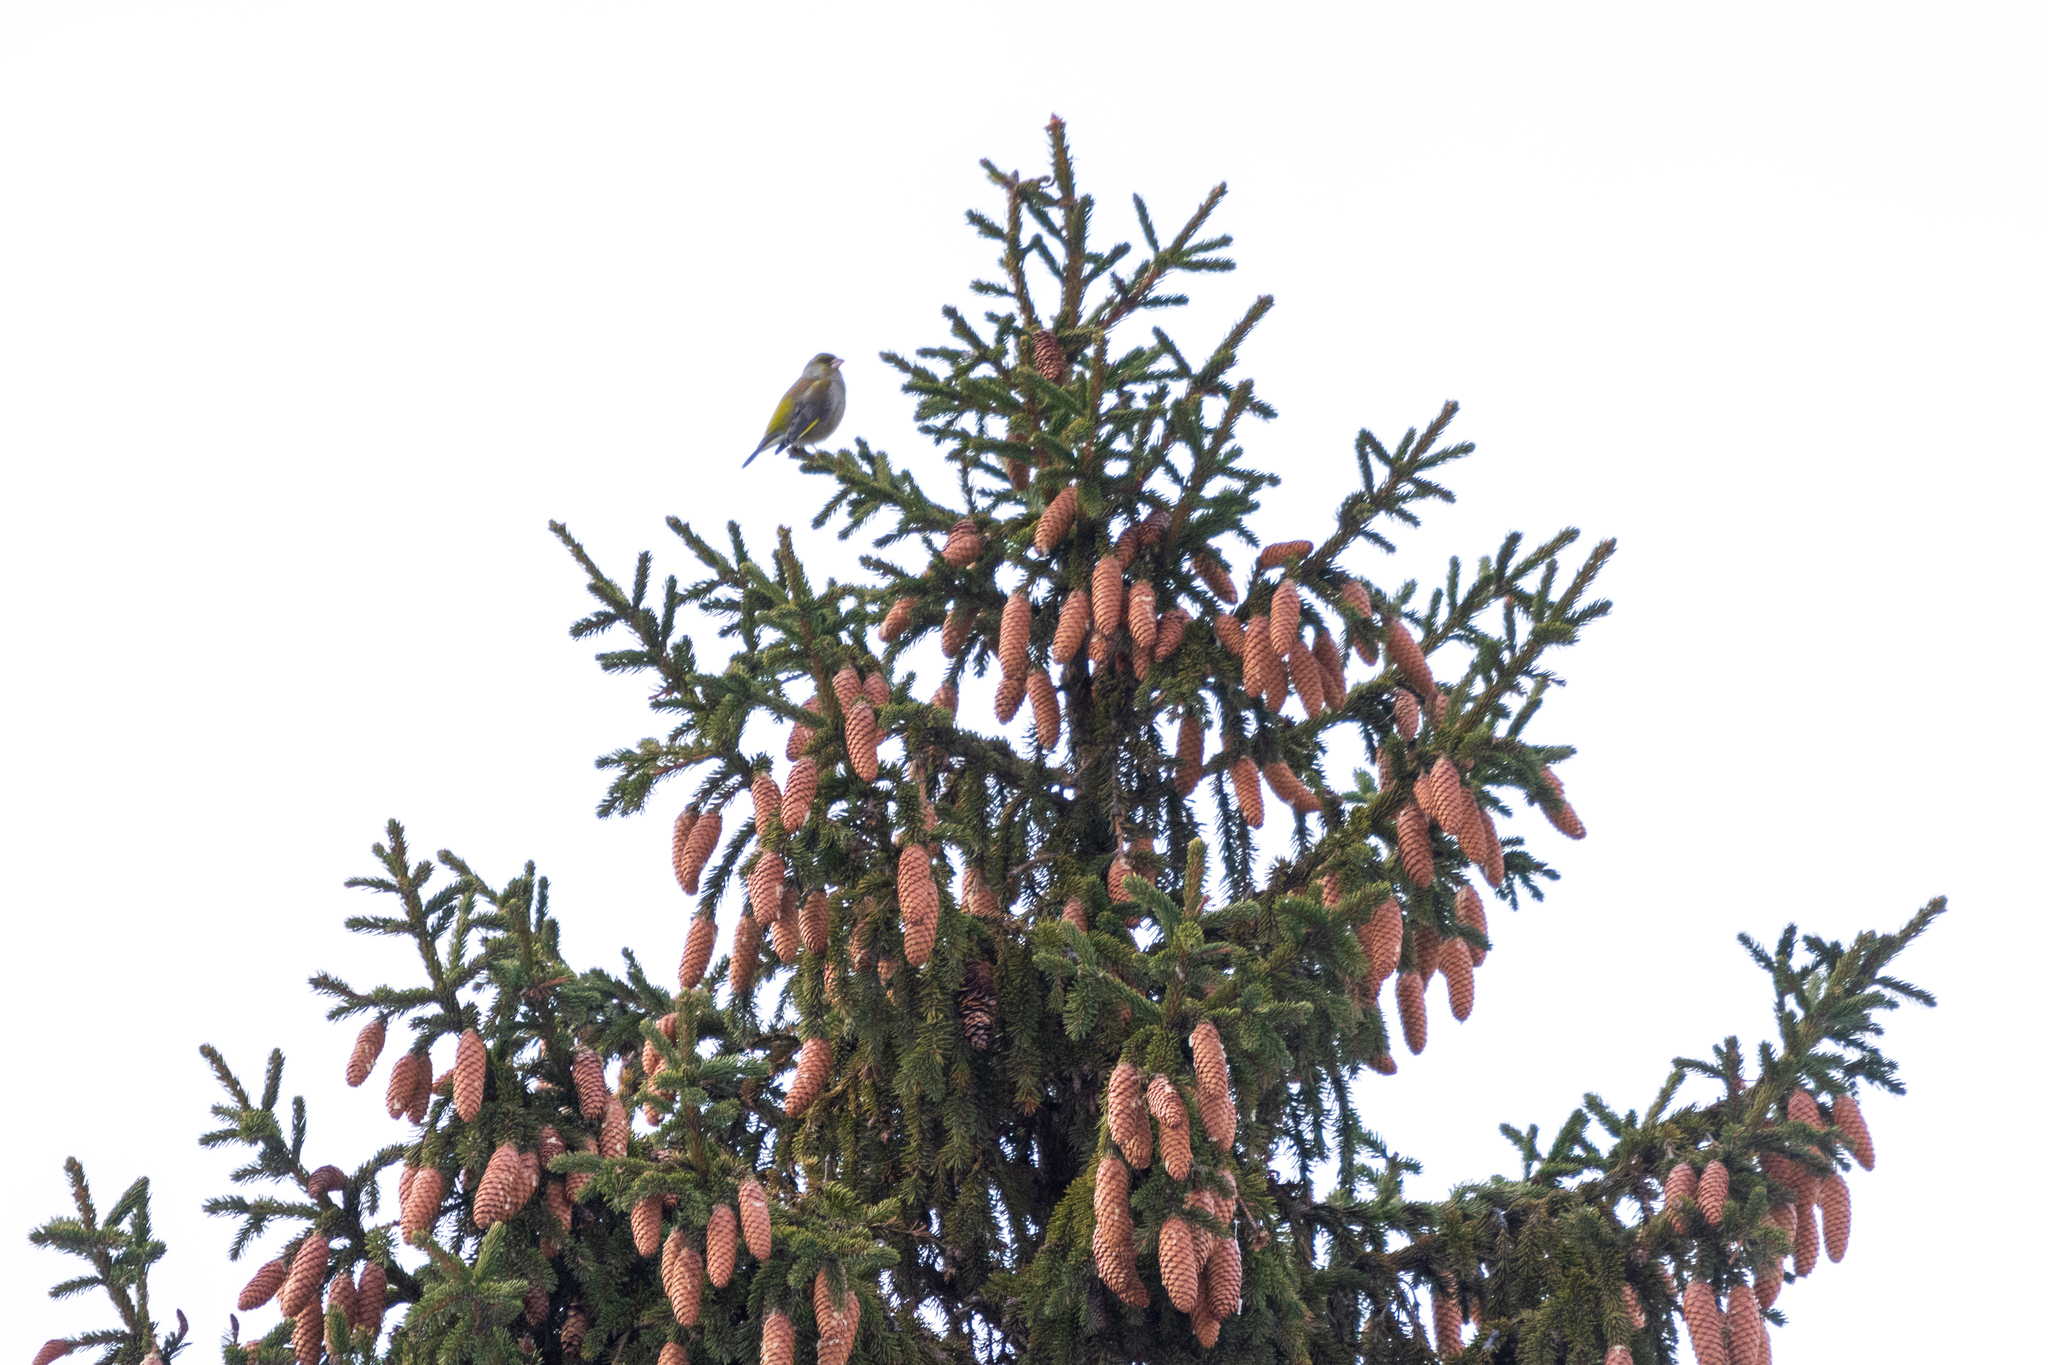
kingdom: Plantae
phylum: Tracheophyta
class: Liliopsida
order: Poales
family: Poaceae
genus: Chloris
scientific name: Chloris chloris
